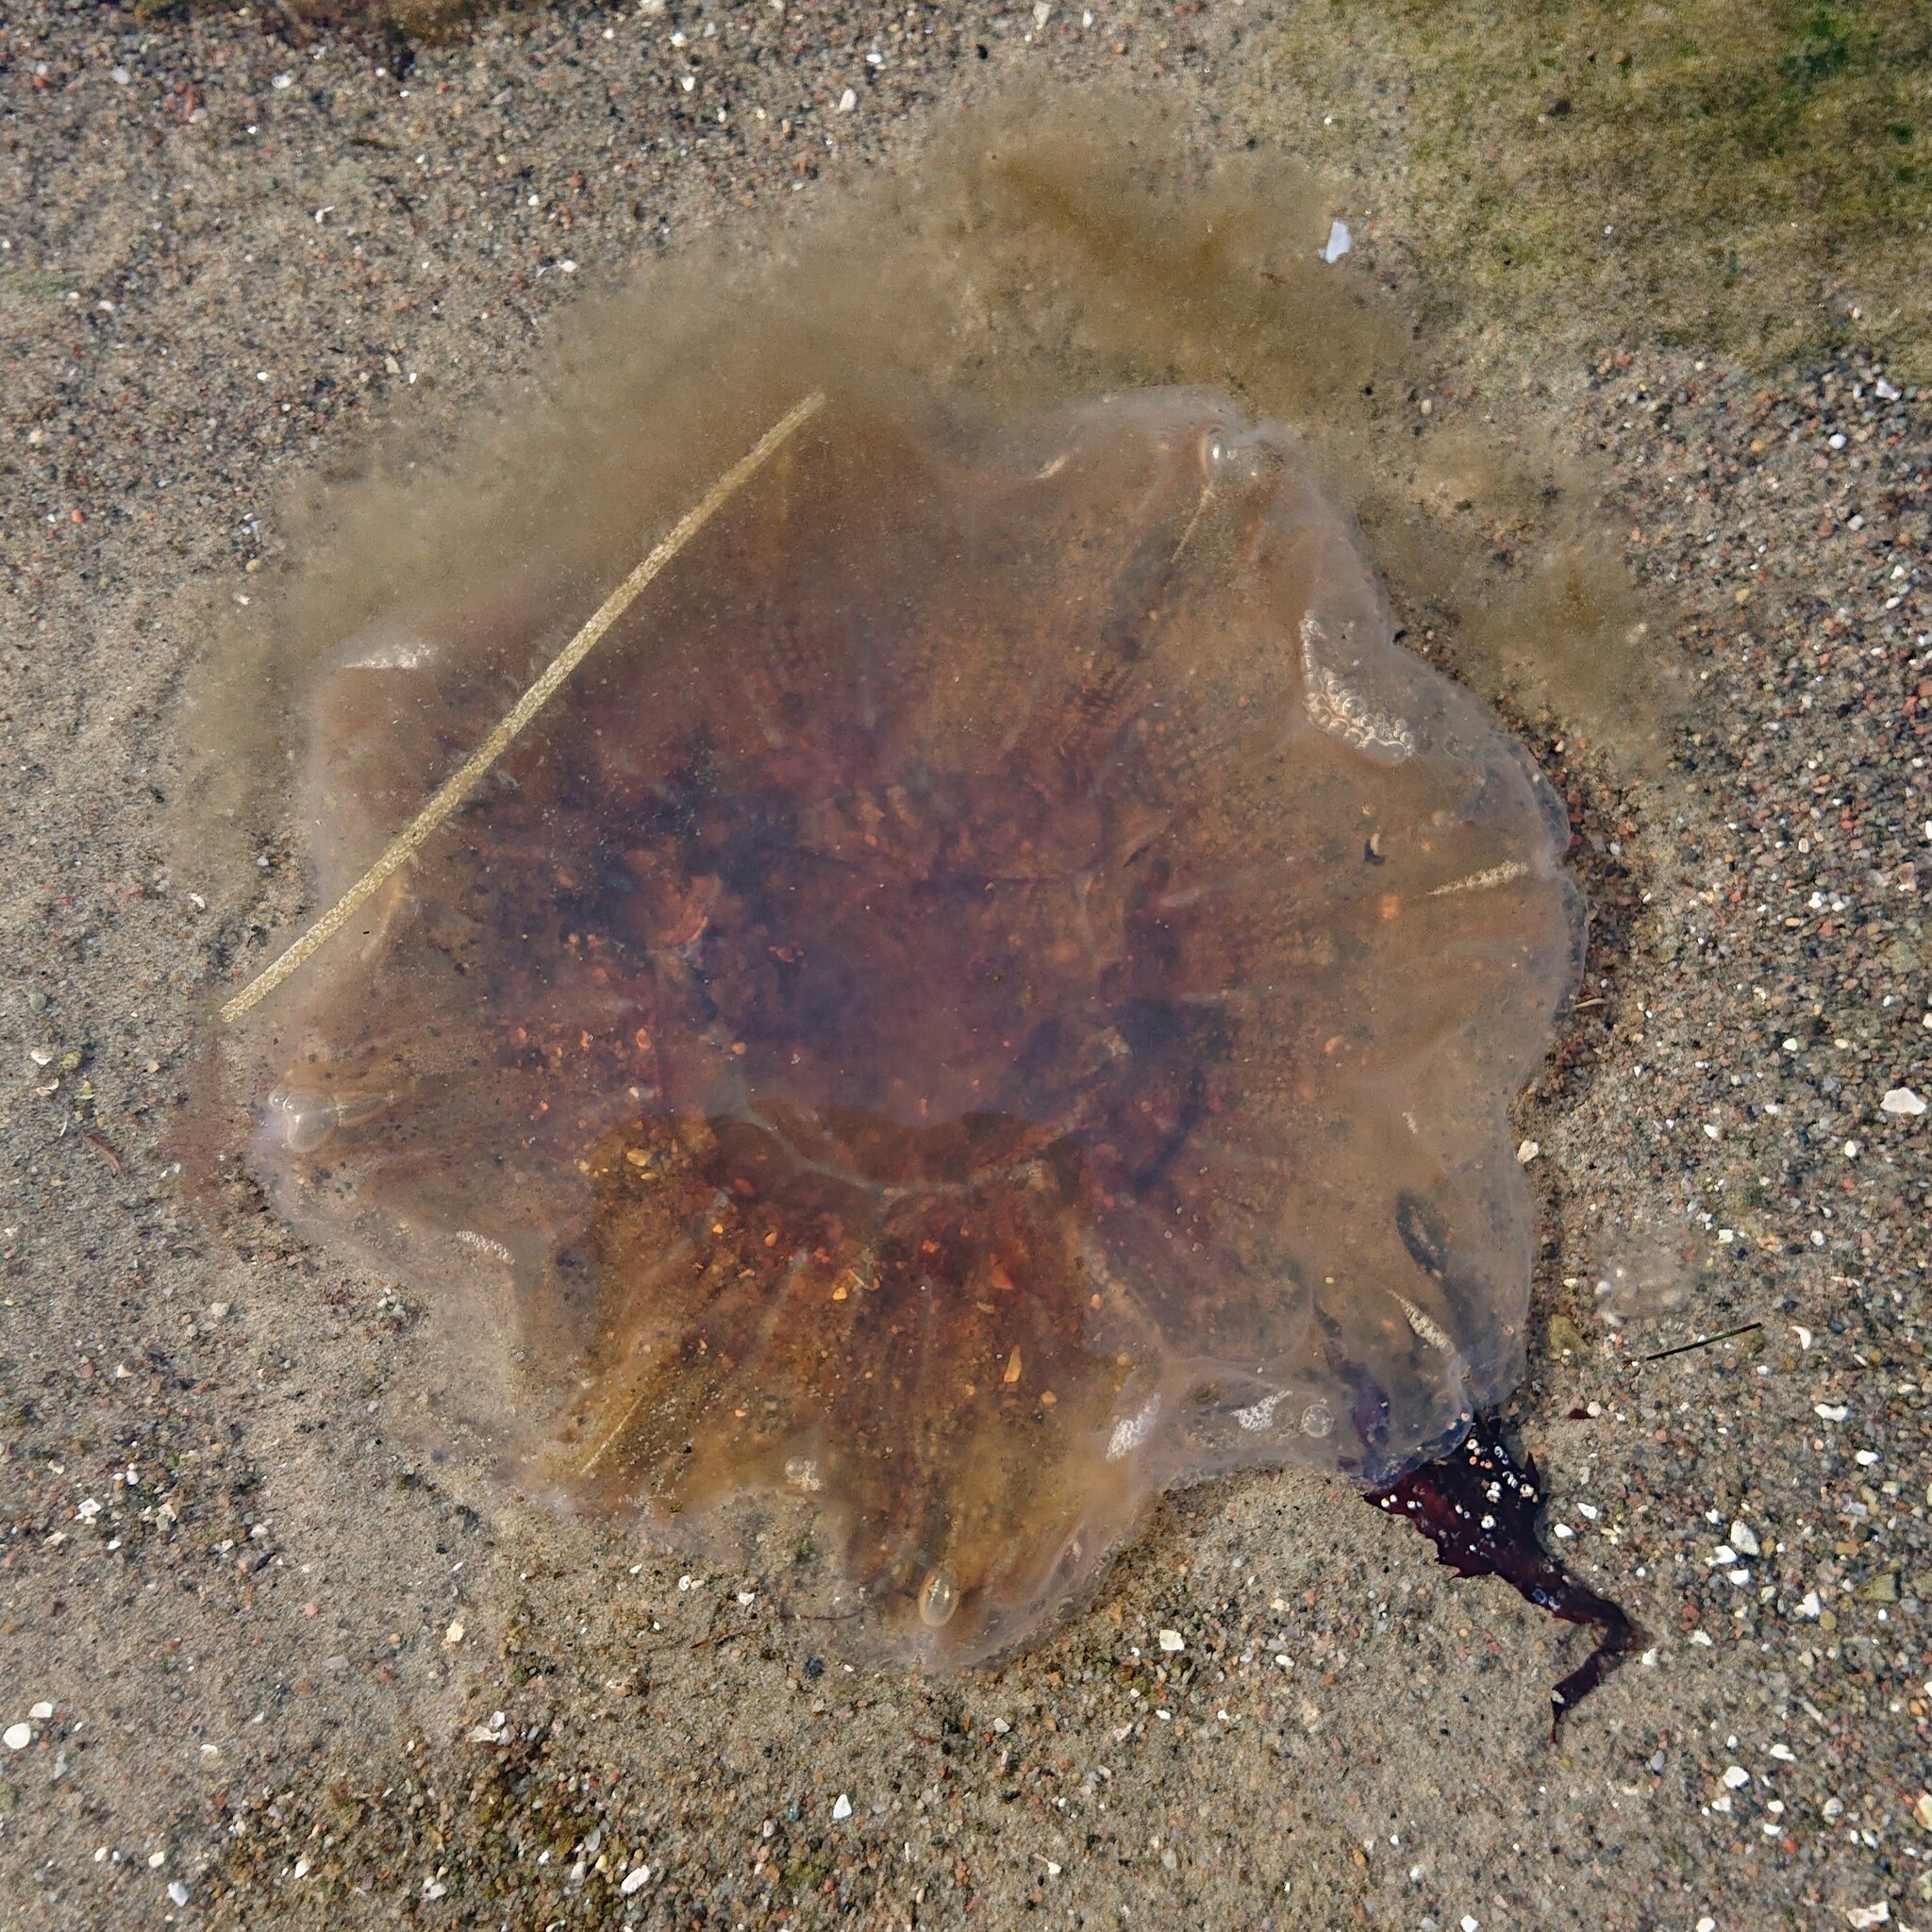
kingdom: Animalia
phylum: Cnidaria
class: Scyphozoa
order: Semaeostomeae
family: Cyaneidae
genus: Cyanea
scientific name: Cyanea capillata
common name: Lion's mane jellyfish
